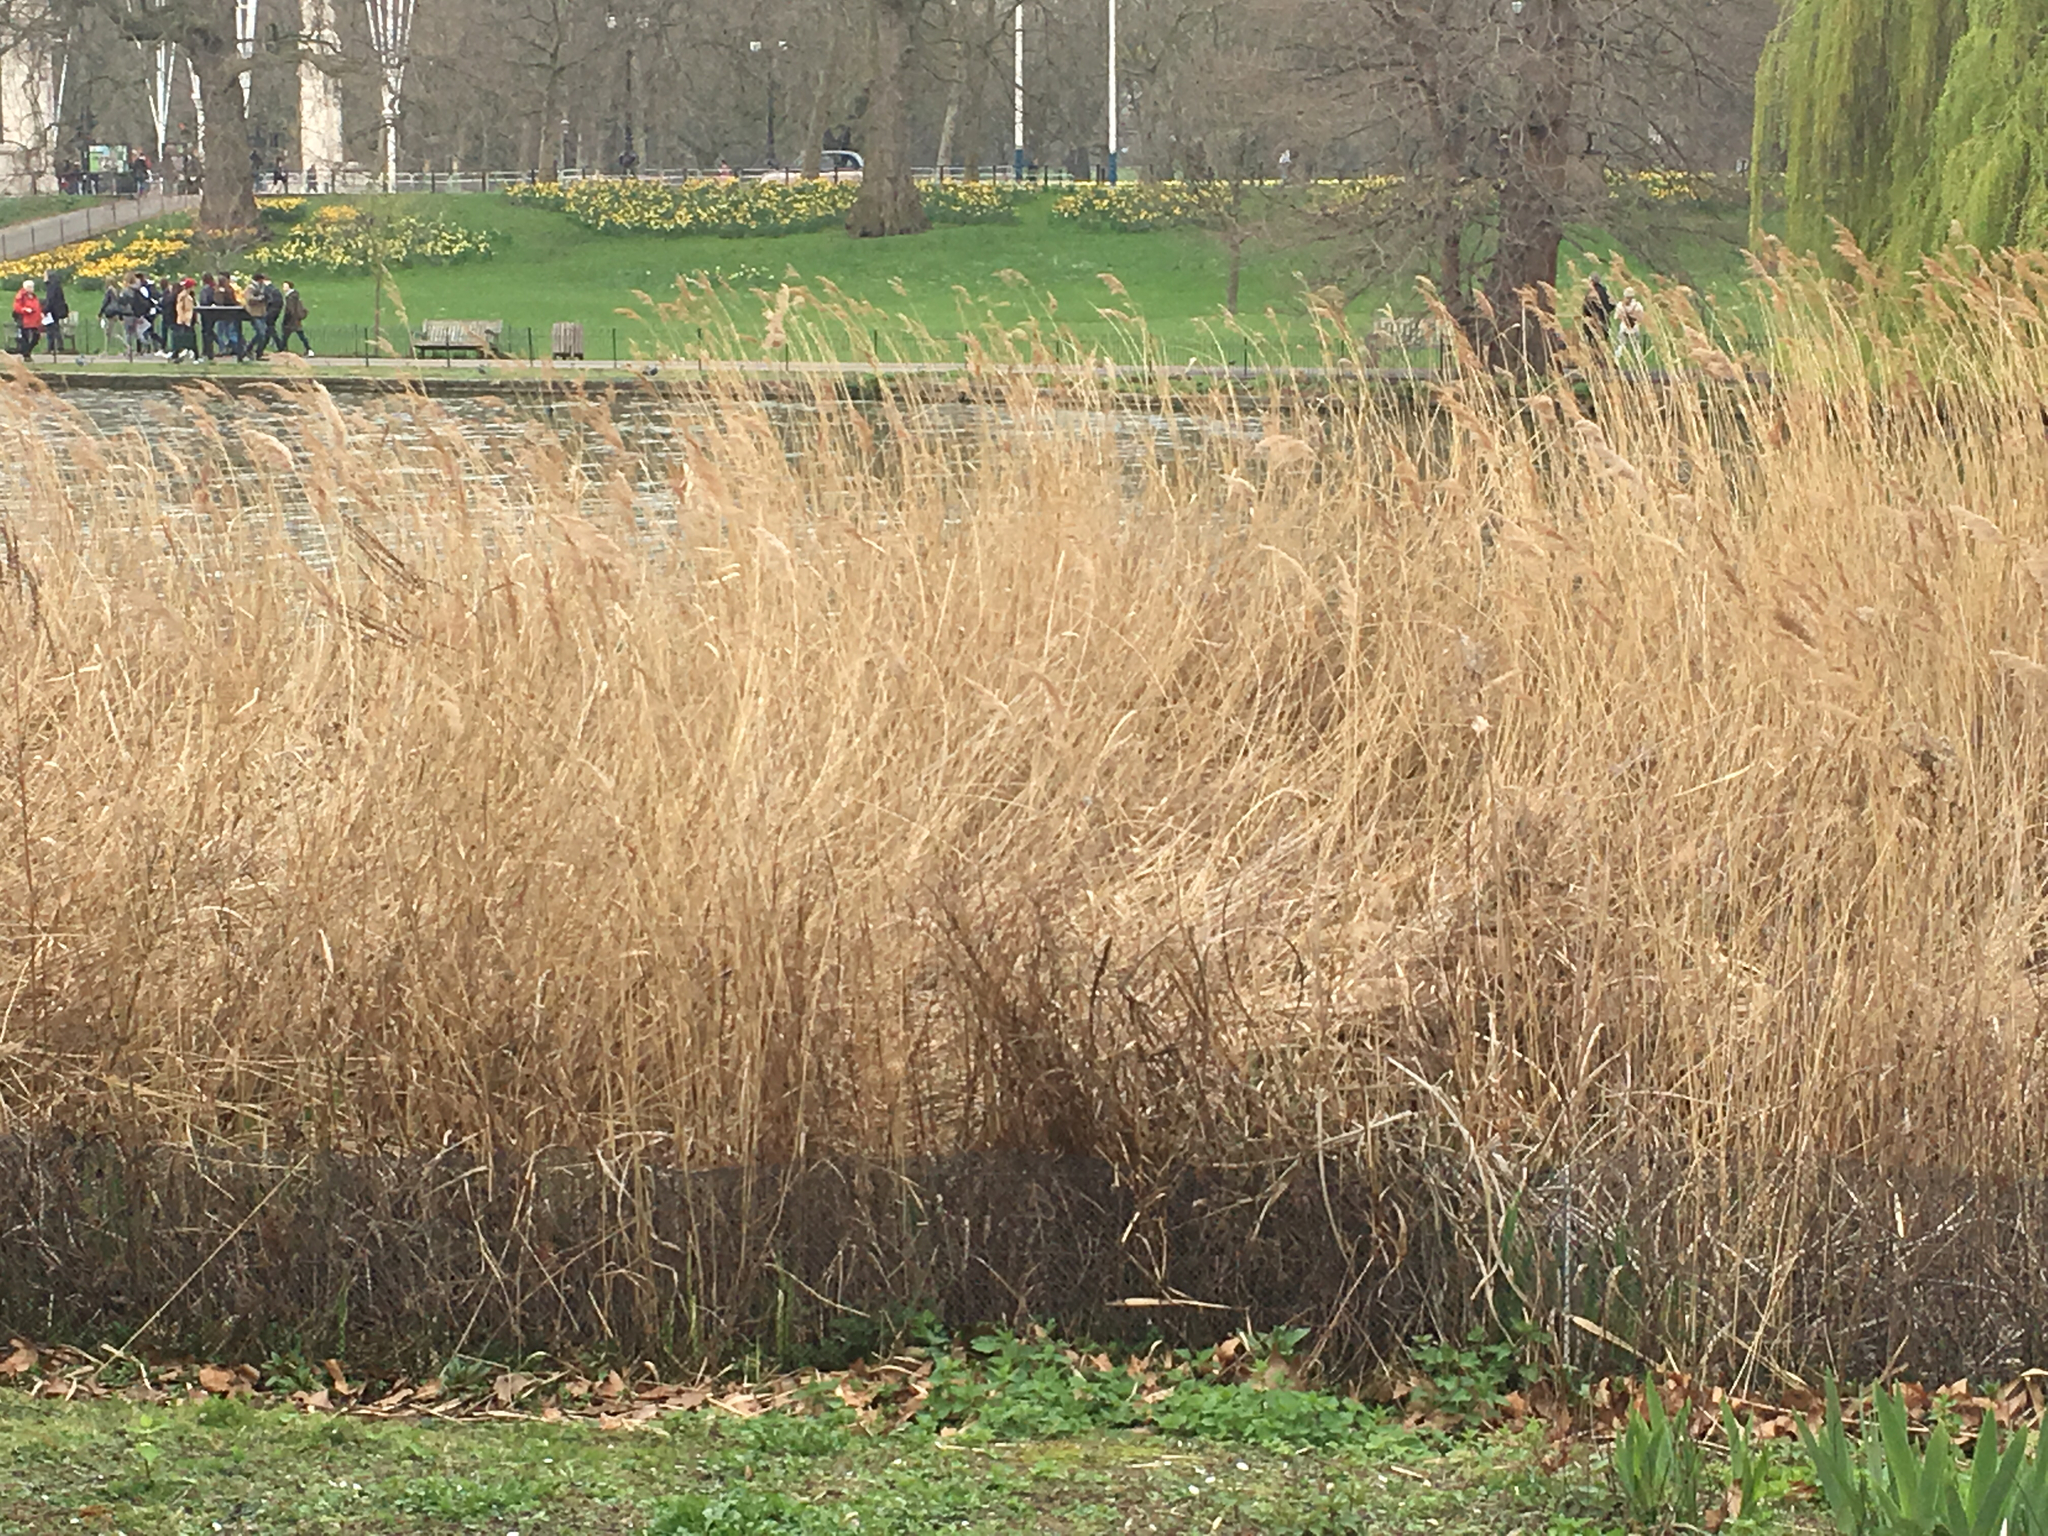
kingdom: Plantae
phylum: Tracheophyta
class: Liliopsida
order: Poales
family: Poaceae
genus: Phragmites
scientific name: Phragmites australis
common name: Common reed
